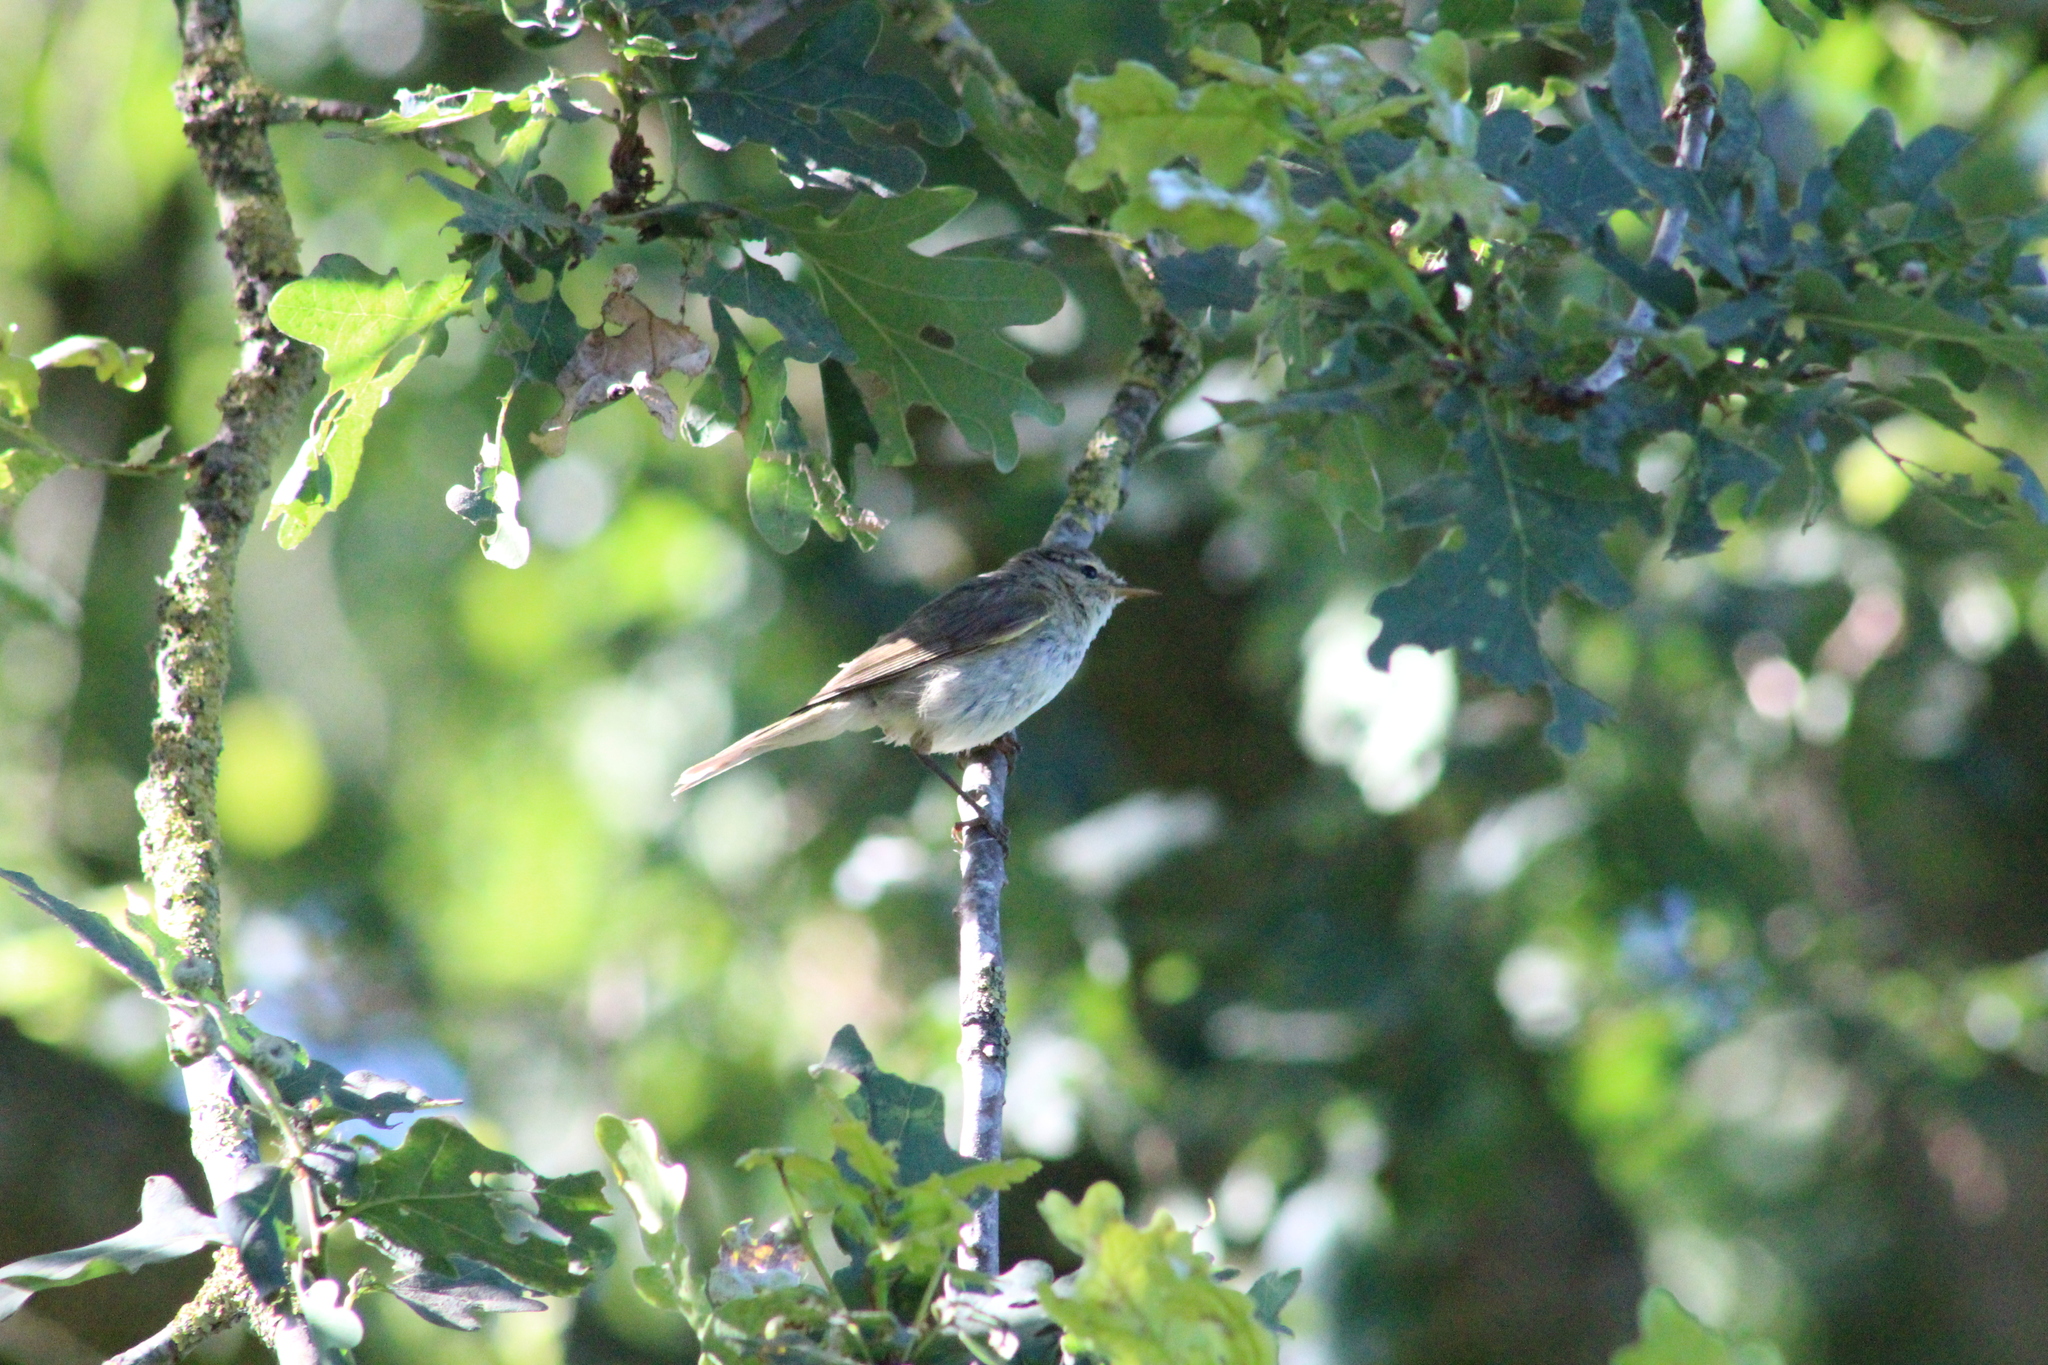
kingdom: Animalia
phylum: Chordata
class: Aves
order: Passeriformes
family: Phylloscopidae
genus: Phylloscopus
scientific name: Phylloscopus collybita
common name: Common chiffchaff
